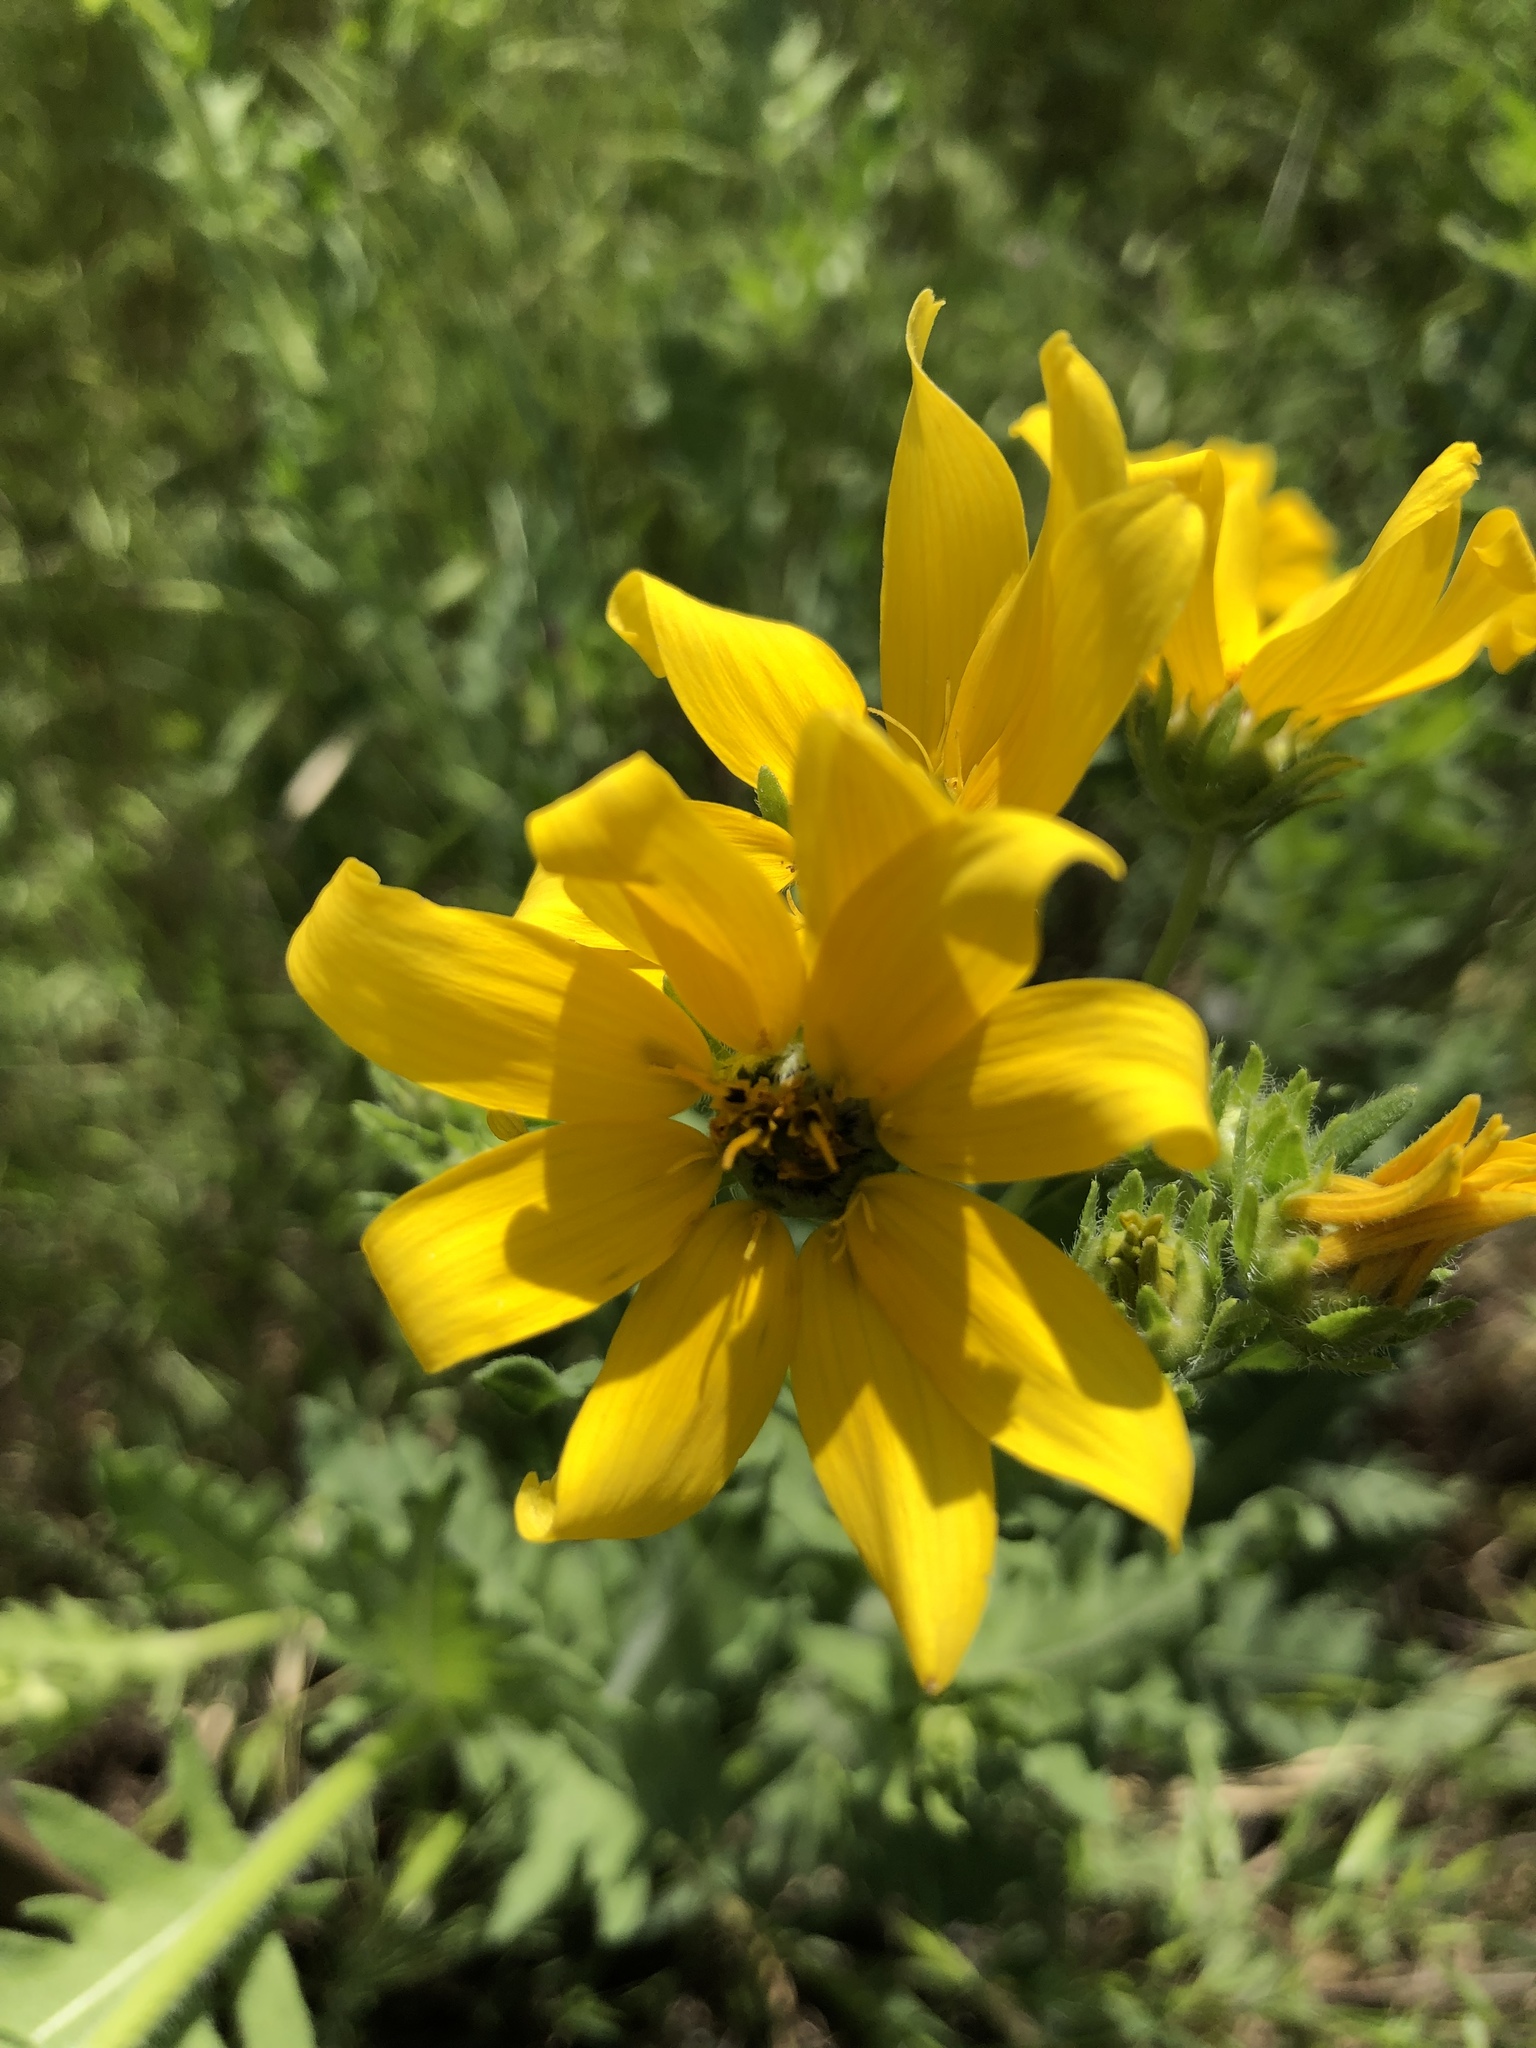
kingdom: Plantae
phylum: Tracheophyta
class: Magnoliopsida
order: Asterales
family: Asteraceae
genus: Engelmannia
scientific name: Engelmannia peristenia
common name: Engelmann's daisy
